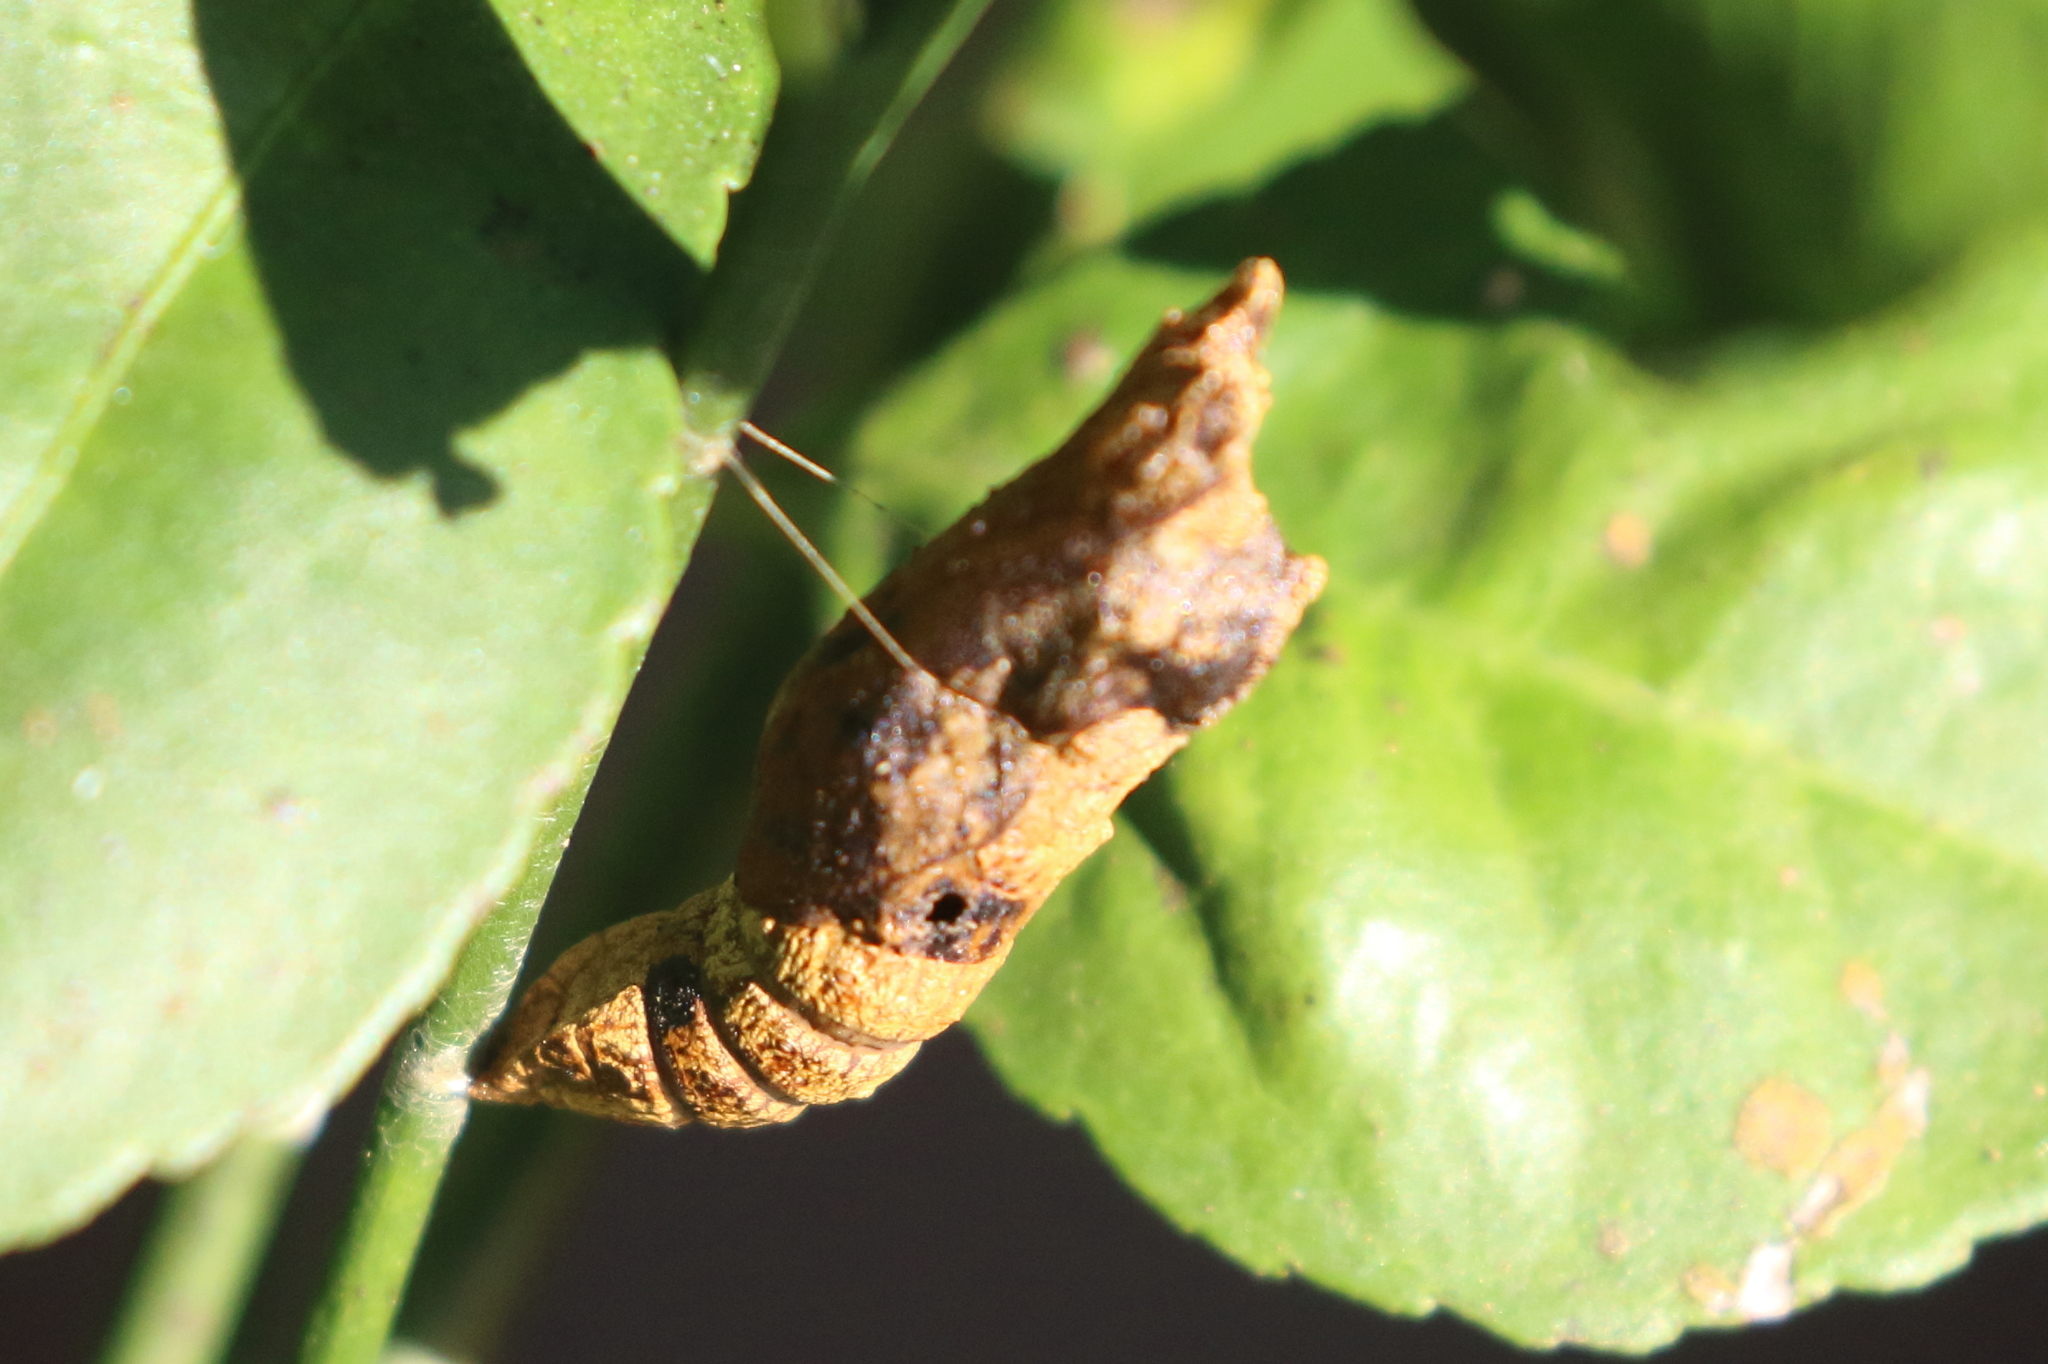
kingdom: Animalia
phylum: Arthropoda
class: Insecta
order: Lepidoptera
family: Papilionidae
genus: Papilio
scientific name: Papilio anactus
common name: Dingy swallowtail
